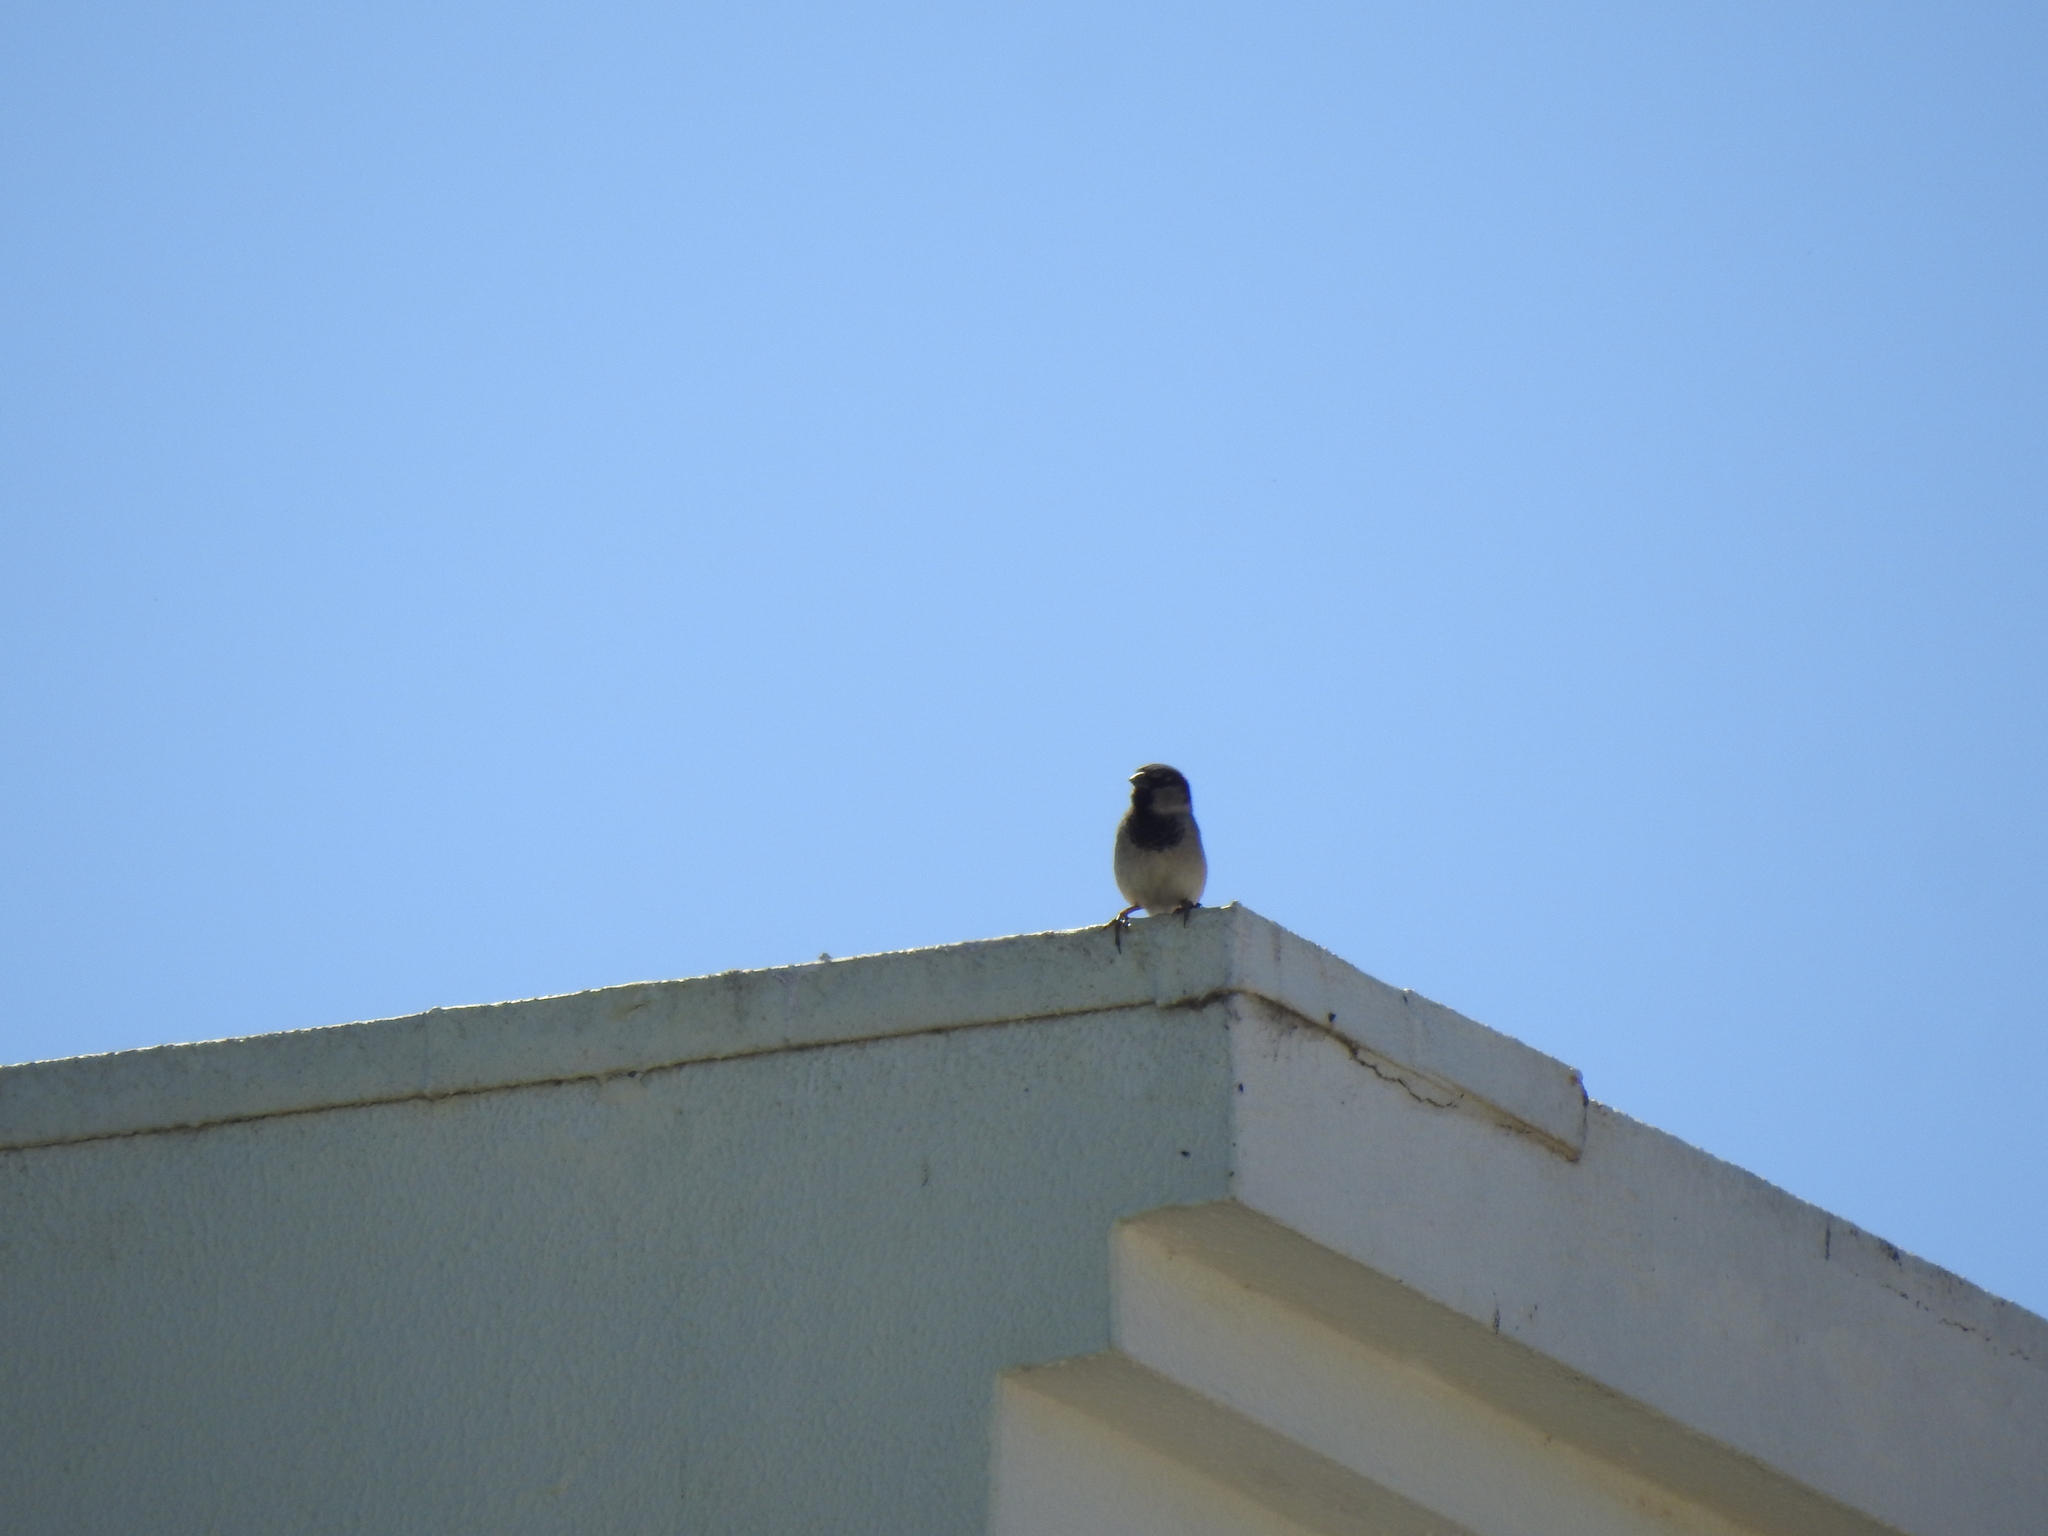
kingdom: Animalia
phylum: Chordata
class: Aves
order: Passeriformes
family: Passeridae
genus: Passer
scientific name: Passer domesticus
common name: House sparrow
